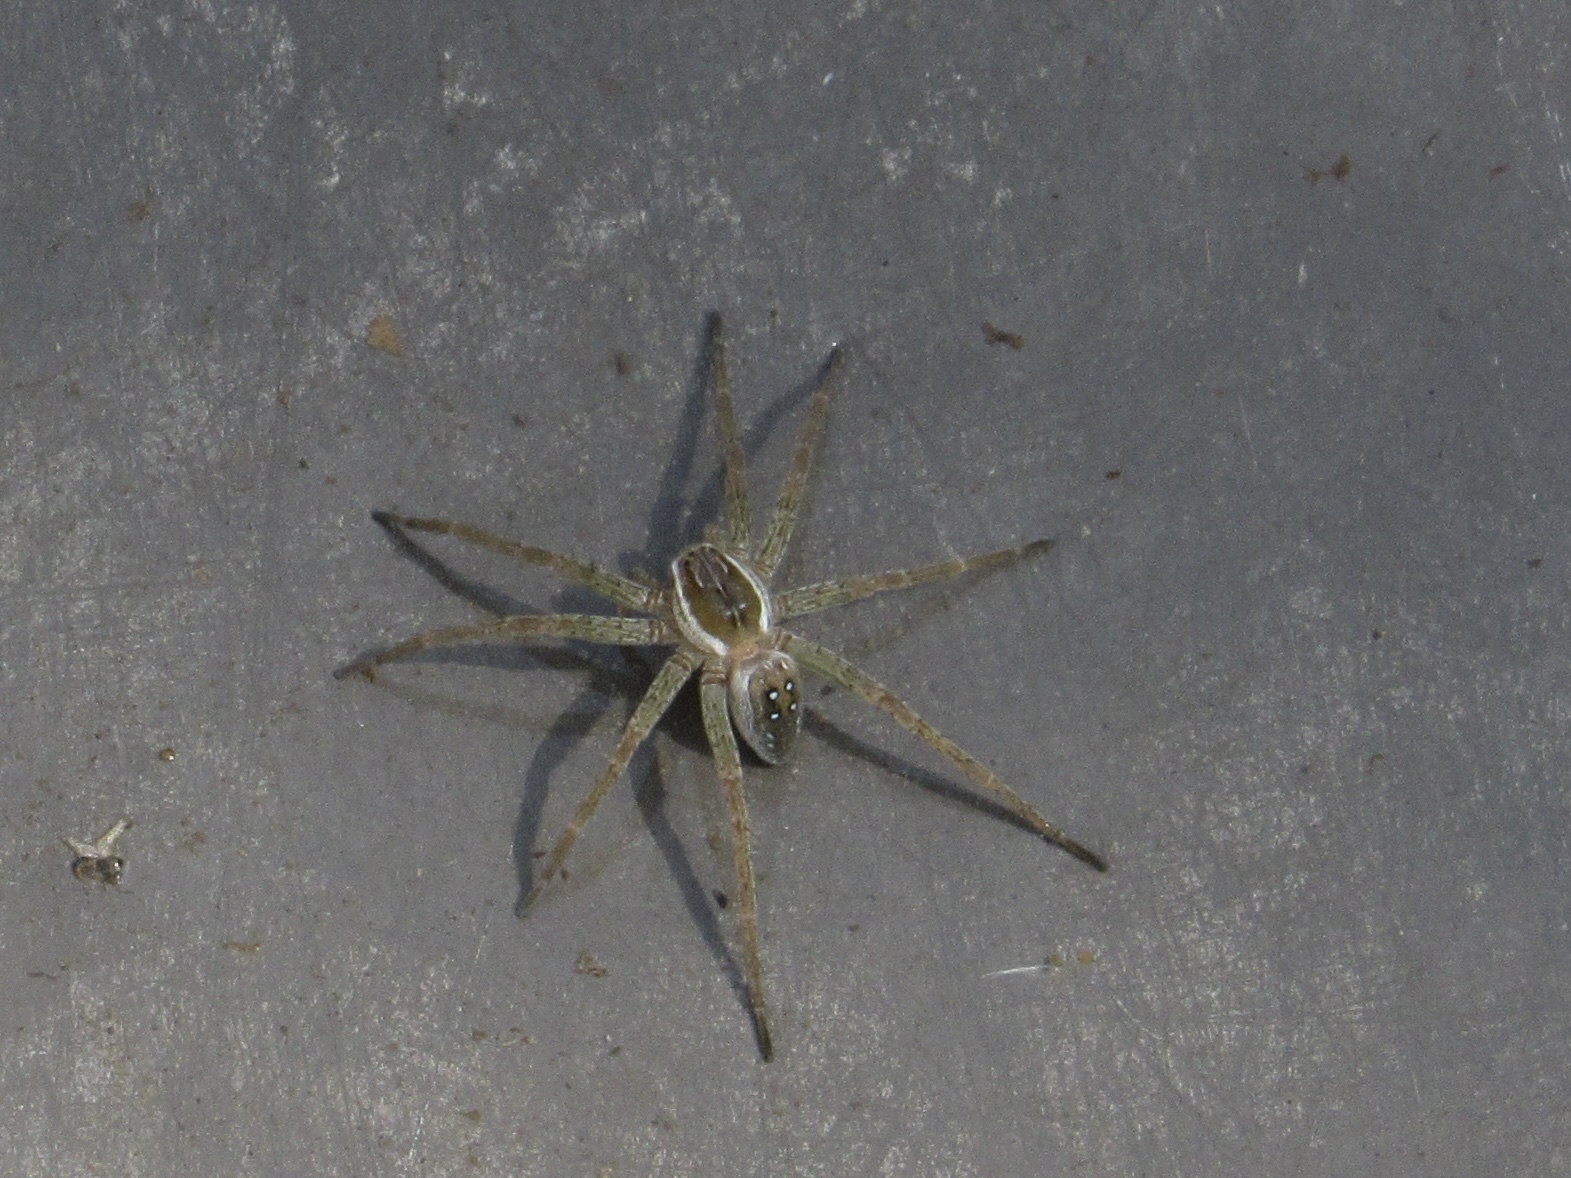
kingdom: Animalia
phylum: Arthropoda
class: Arachnida
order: Araneae
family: Pisauridae
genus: Dolomedes
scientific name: Dolomedes triton
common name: Six-spotted fishing spider
